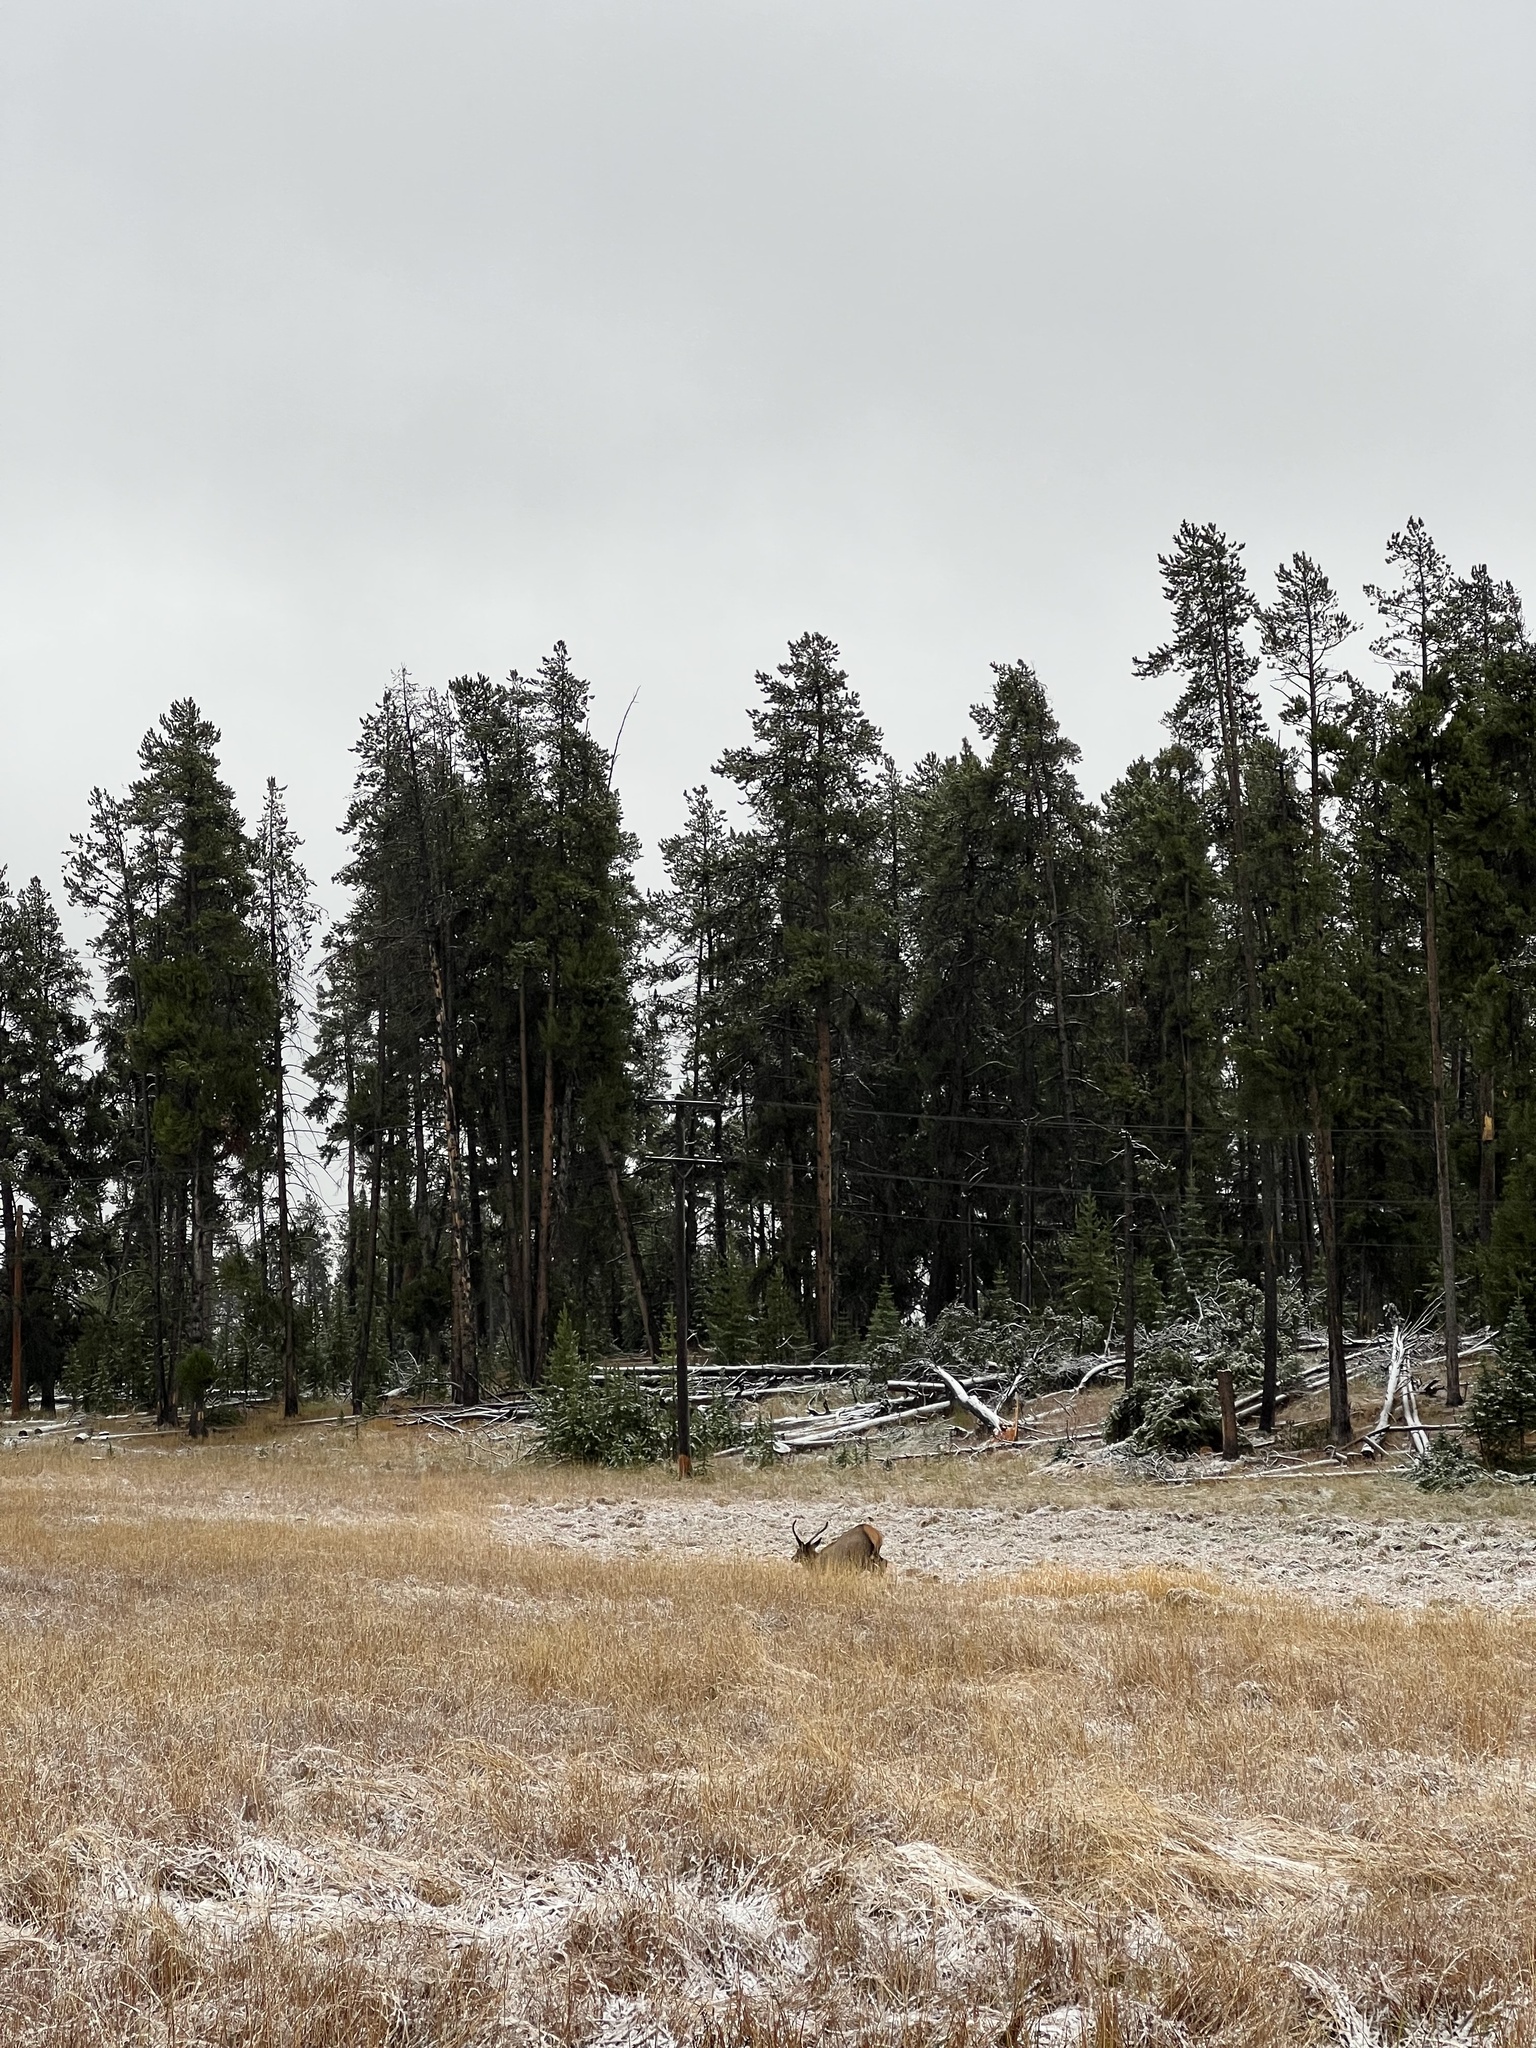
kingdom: Animalia
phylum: Chordata
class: Mammalia
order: Artiodactyla
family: Cervidae
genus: Cervus
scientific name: Cervus elaphus
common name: Red deer
